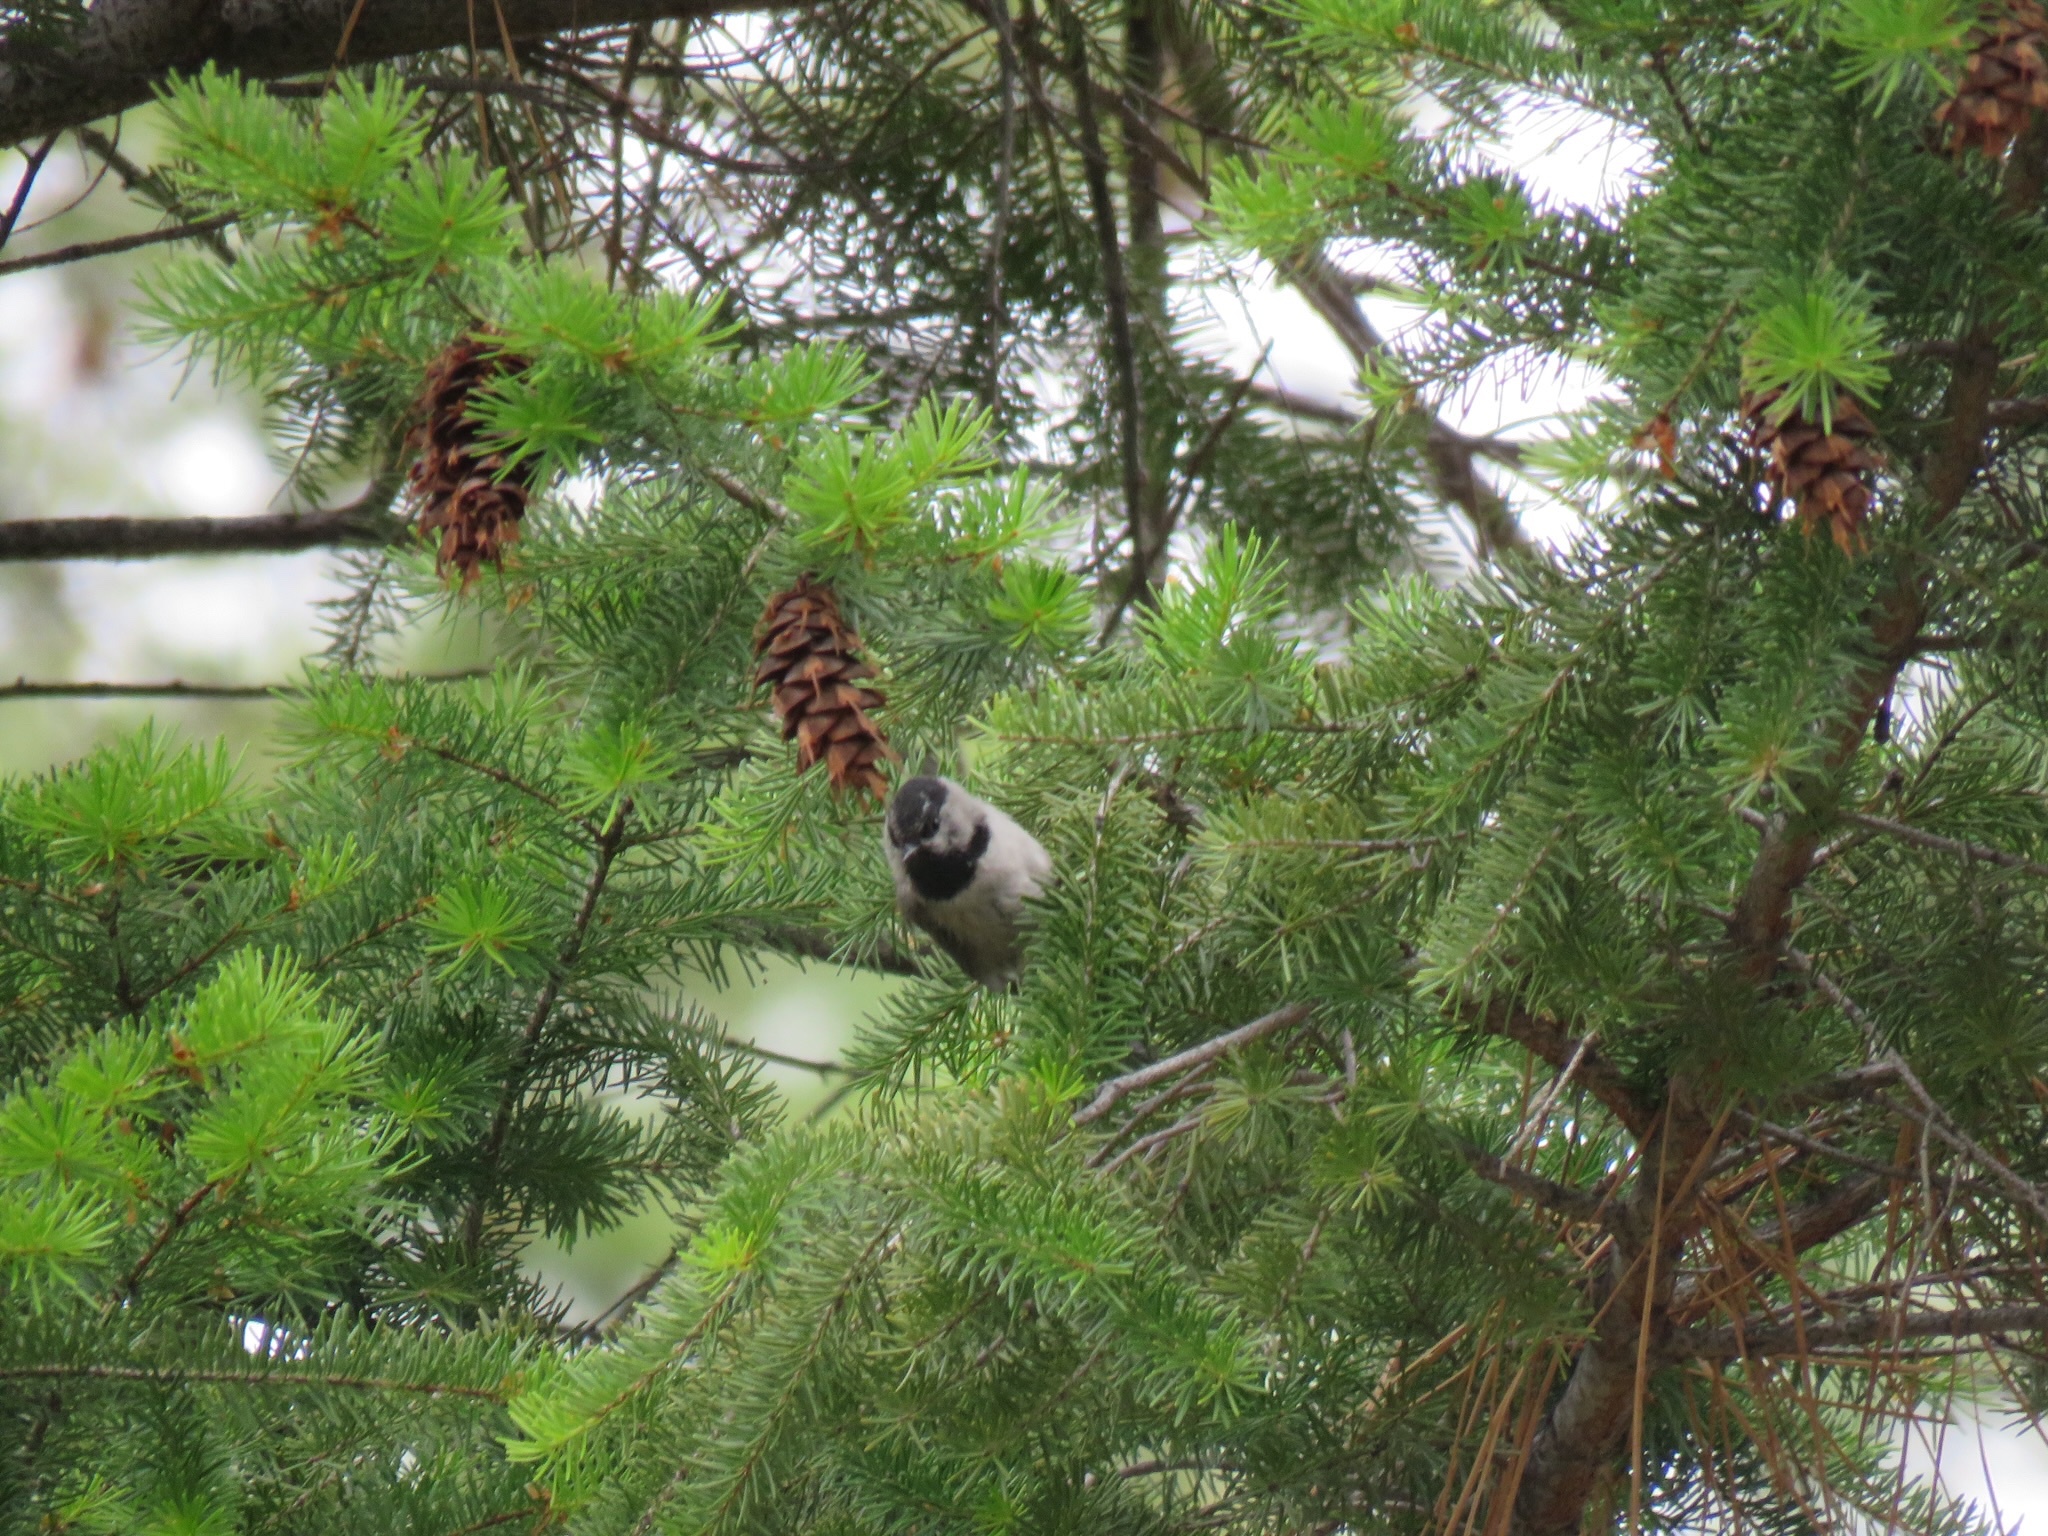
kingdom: Animalia
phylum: Chordata
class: Aves
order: Passeriformes
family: Paridae
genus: Poecile
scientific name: Poecile gambeli
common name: Mountain chickadee
